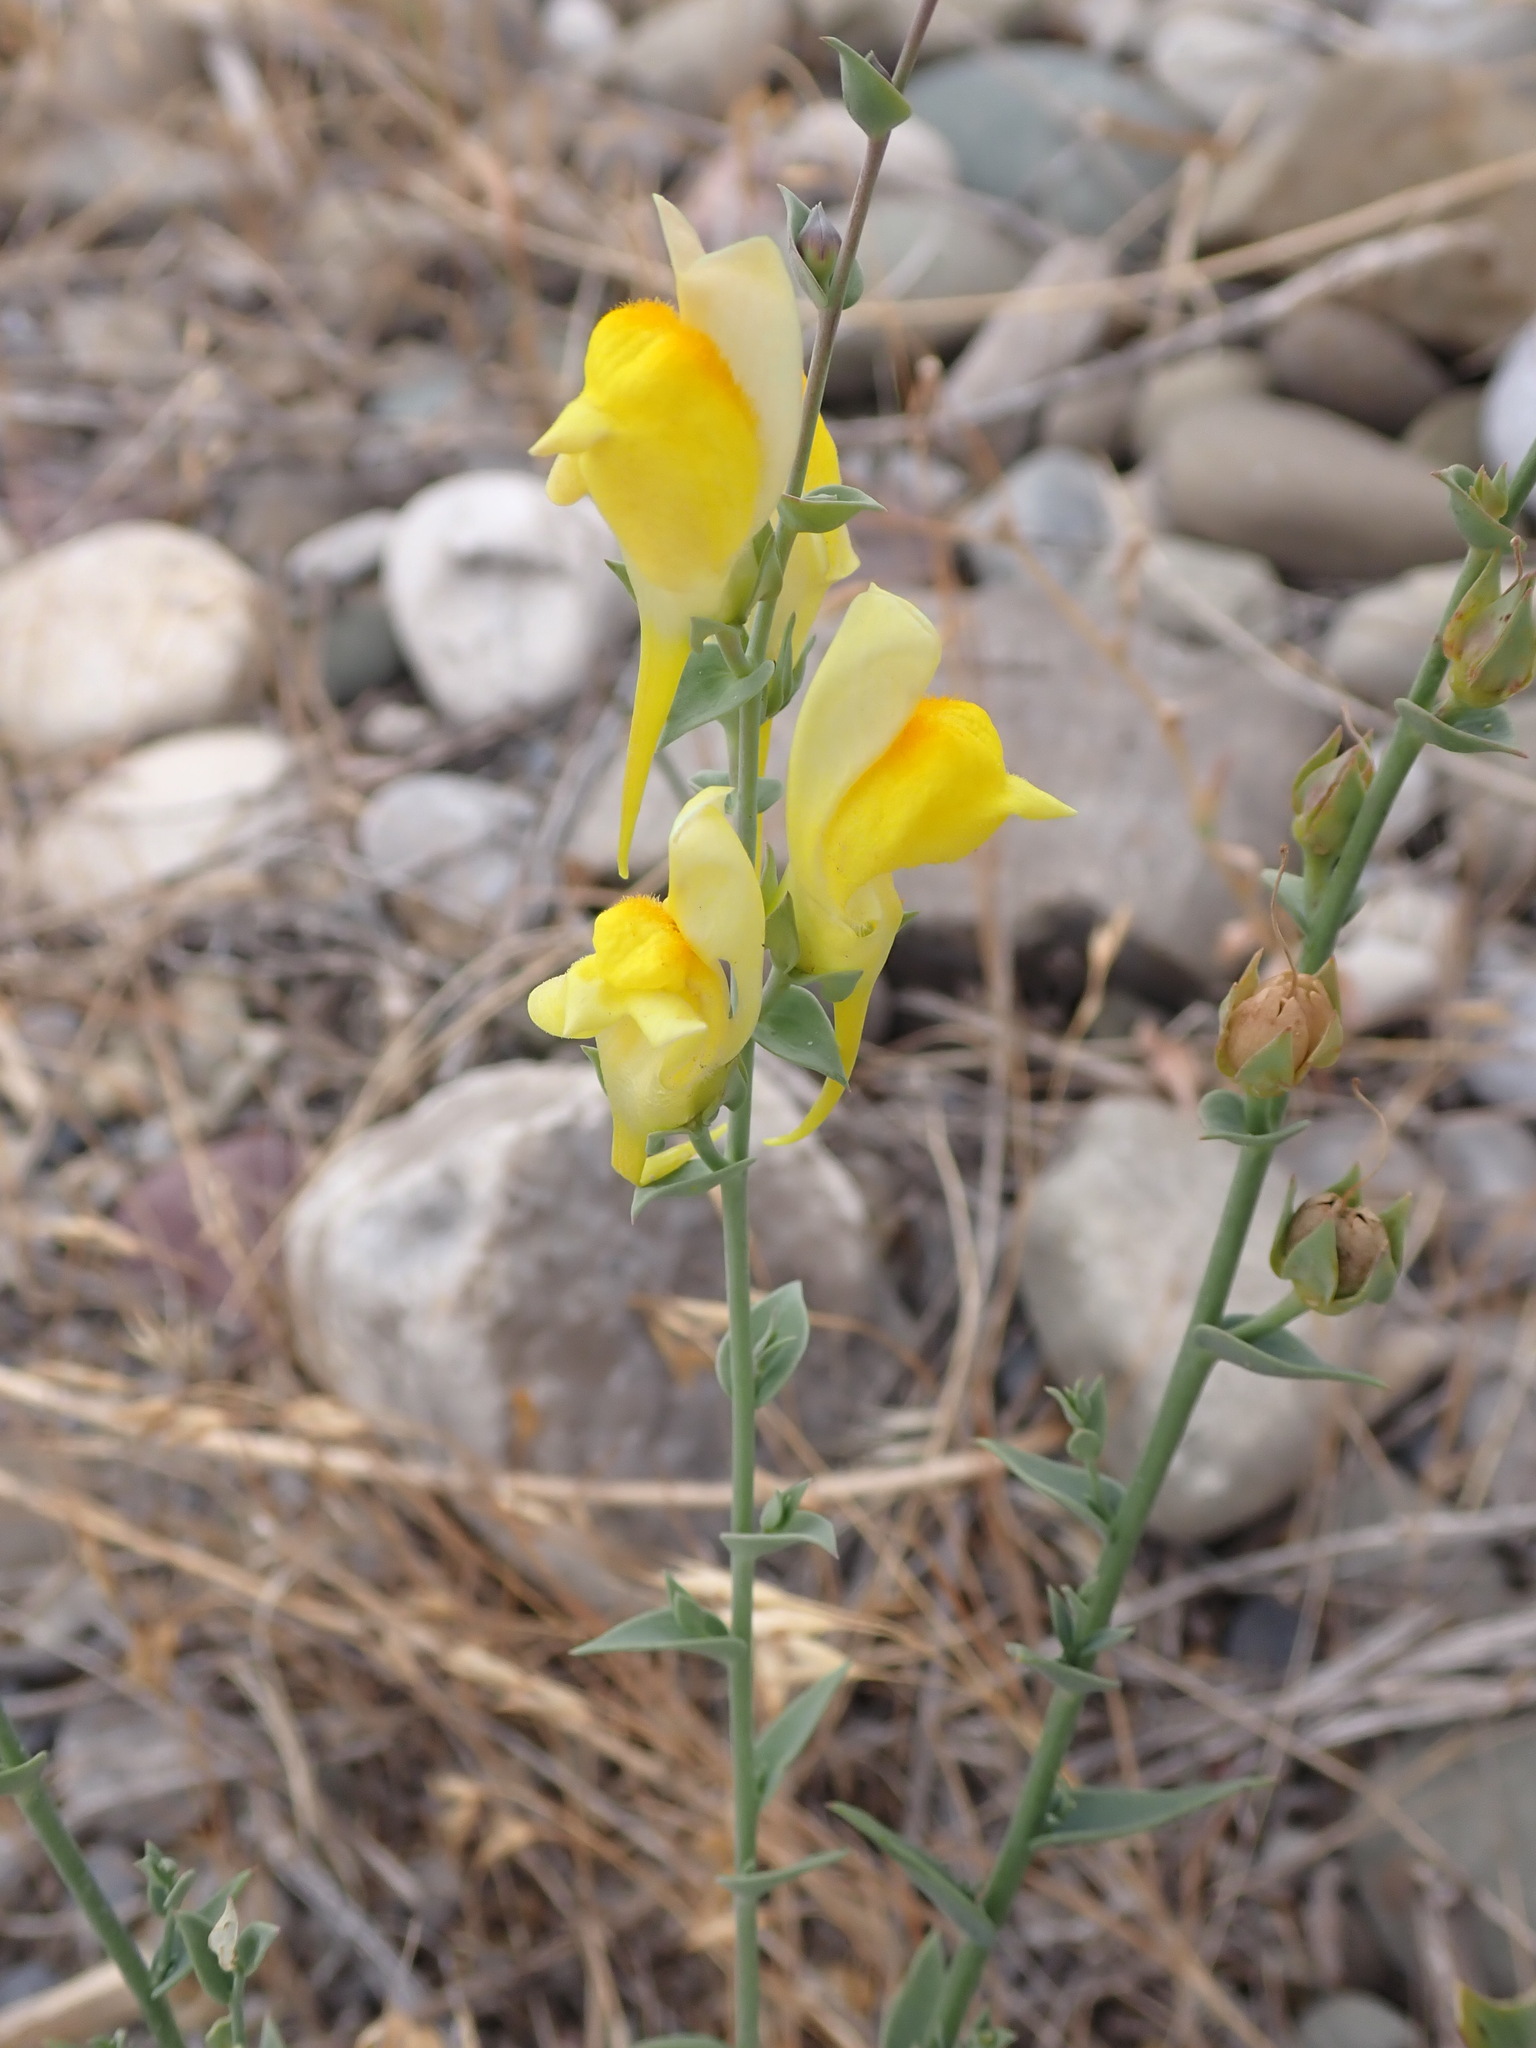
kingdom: Plantae
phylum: Tracheophyta
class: Magnoliopsida
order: Lamiales
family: Plantaginaceae
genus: Linaria
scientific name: Linaria dalmatica
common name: Dalmatian toadflax
